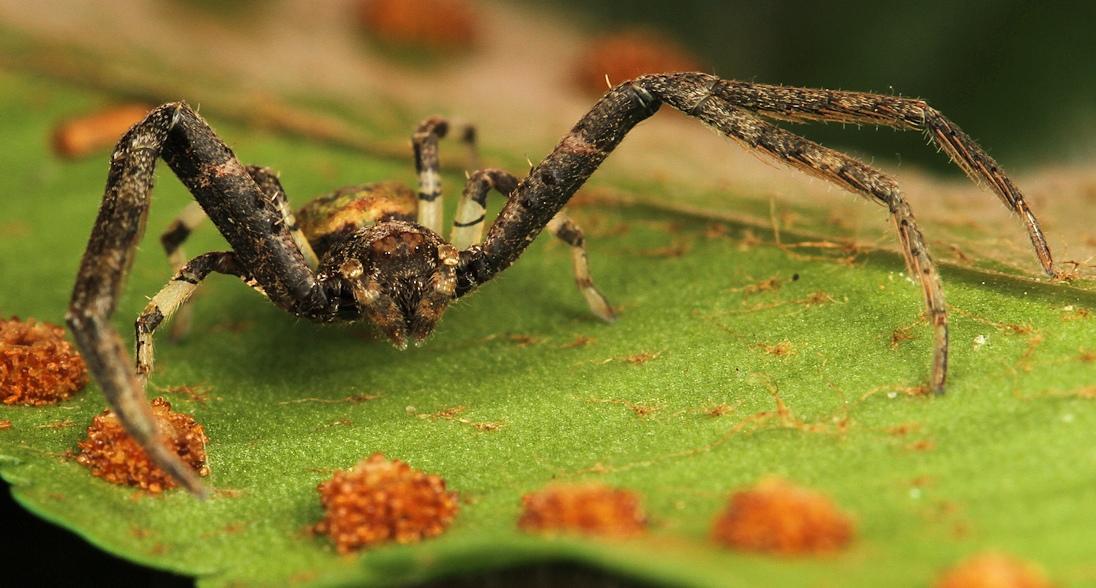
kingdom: Animalia
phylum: Arthropoda
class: Arachnida
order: Araneae
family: Thomisidae
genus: Geraesta
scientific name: Geraesta congoensis
